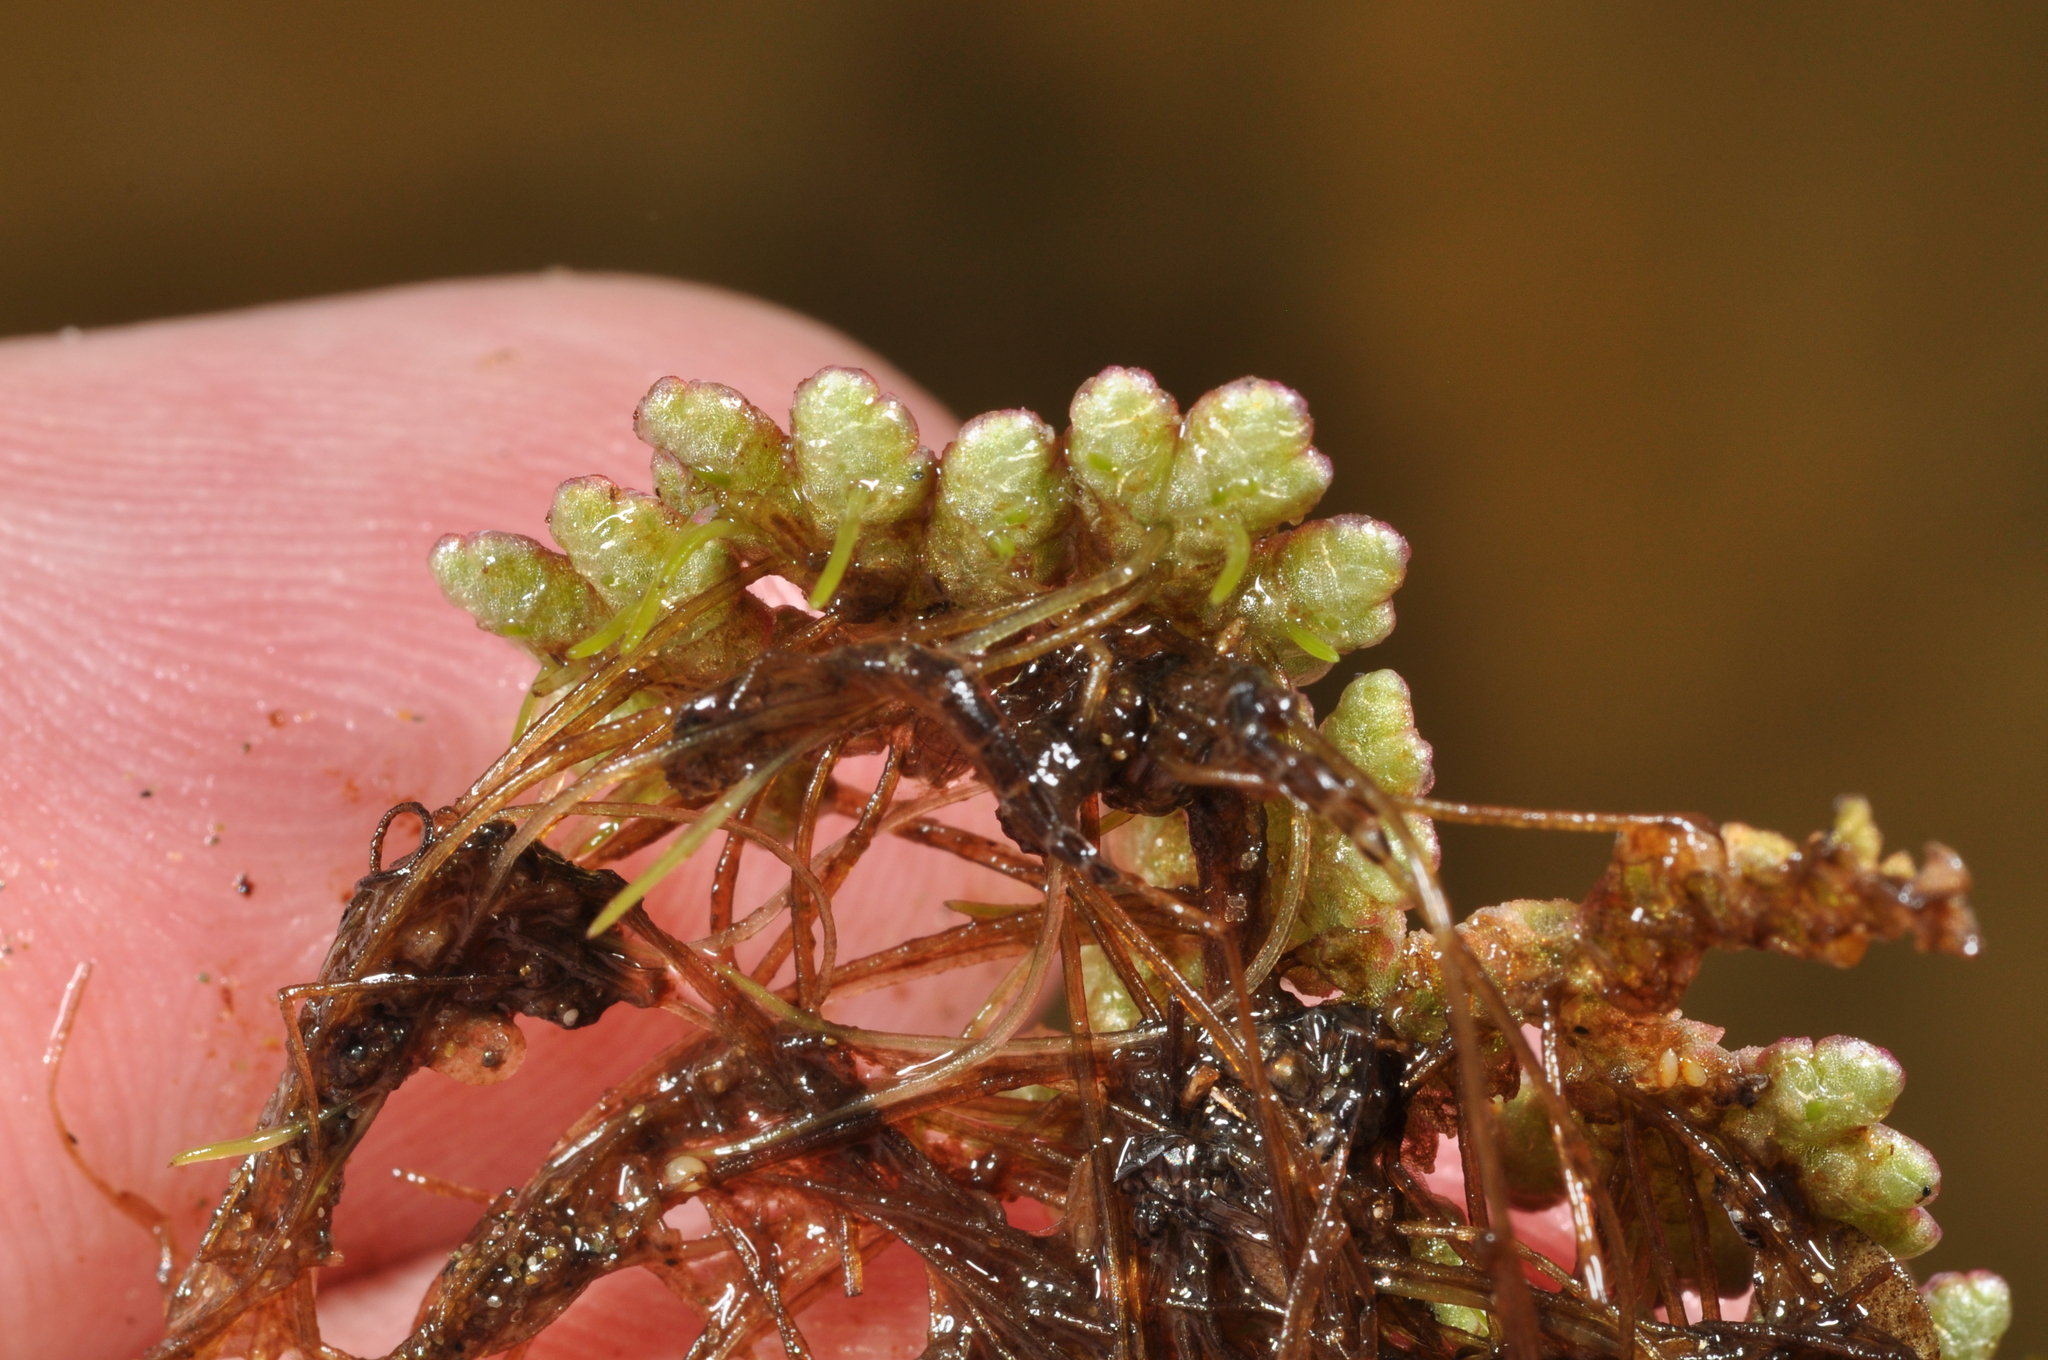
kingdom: Plantae
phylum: Tracheophyta
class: Polypodiopsida
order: Salviniales
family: Salviniaceae
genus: Azolla
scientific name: Azolla rubra
